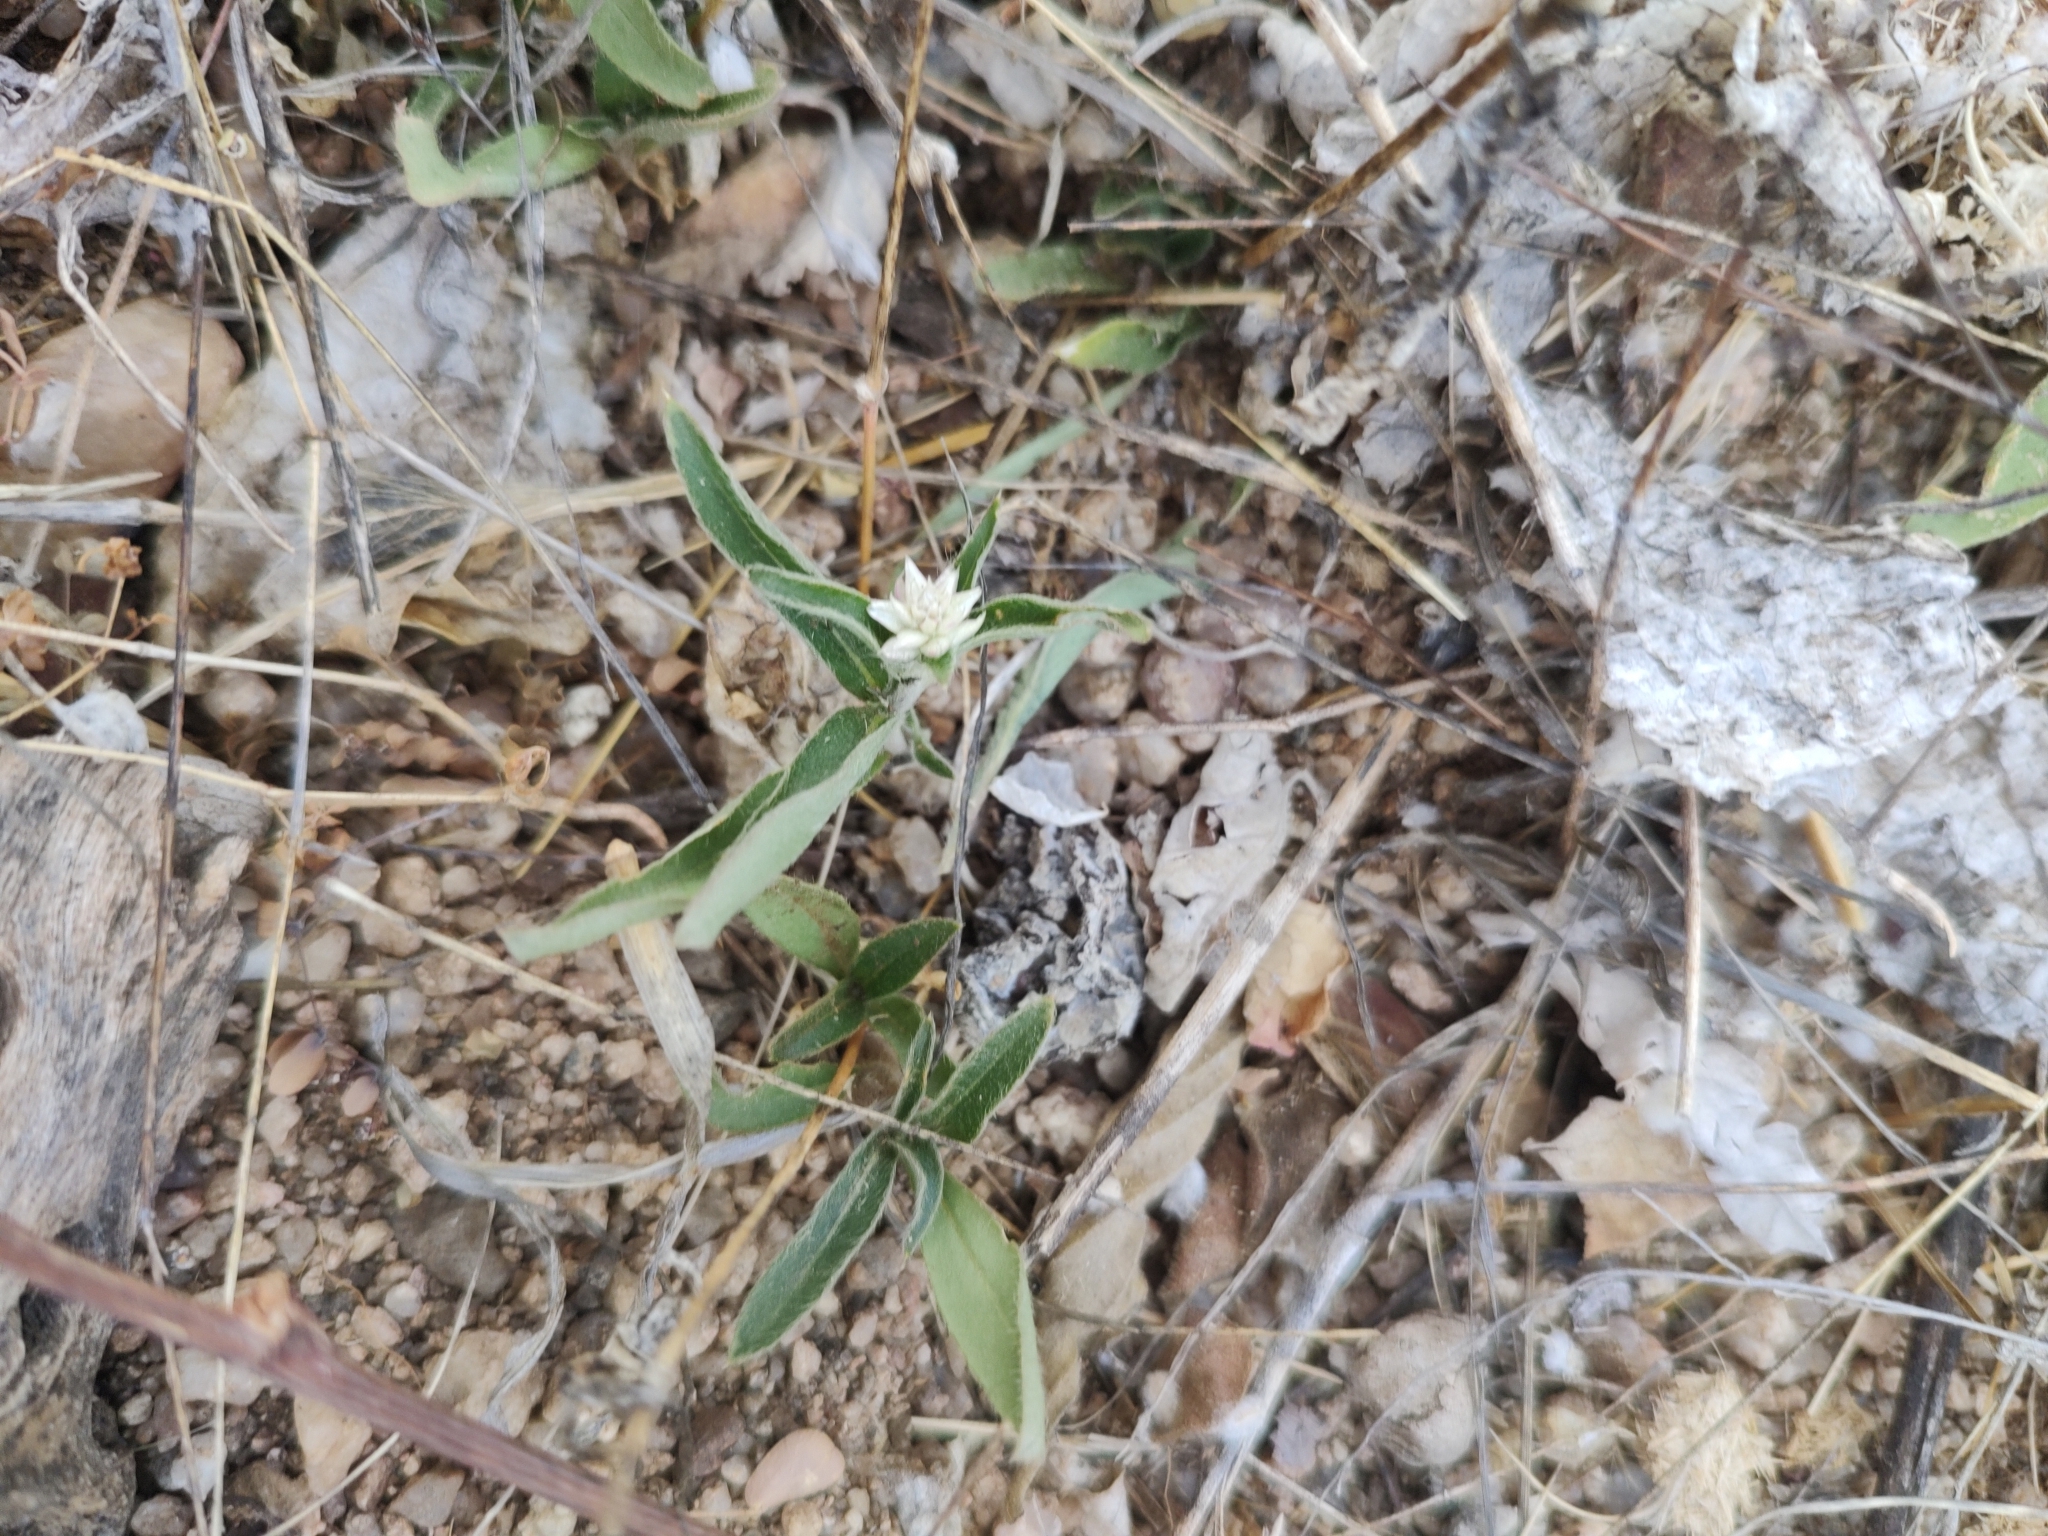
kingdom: Plantae
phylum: Tracheophyta
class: Magnoliopsida
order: Caryophyllales
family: Amaranthaceae
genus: Gomphrena
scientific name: Gomphrena sonorae
